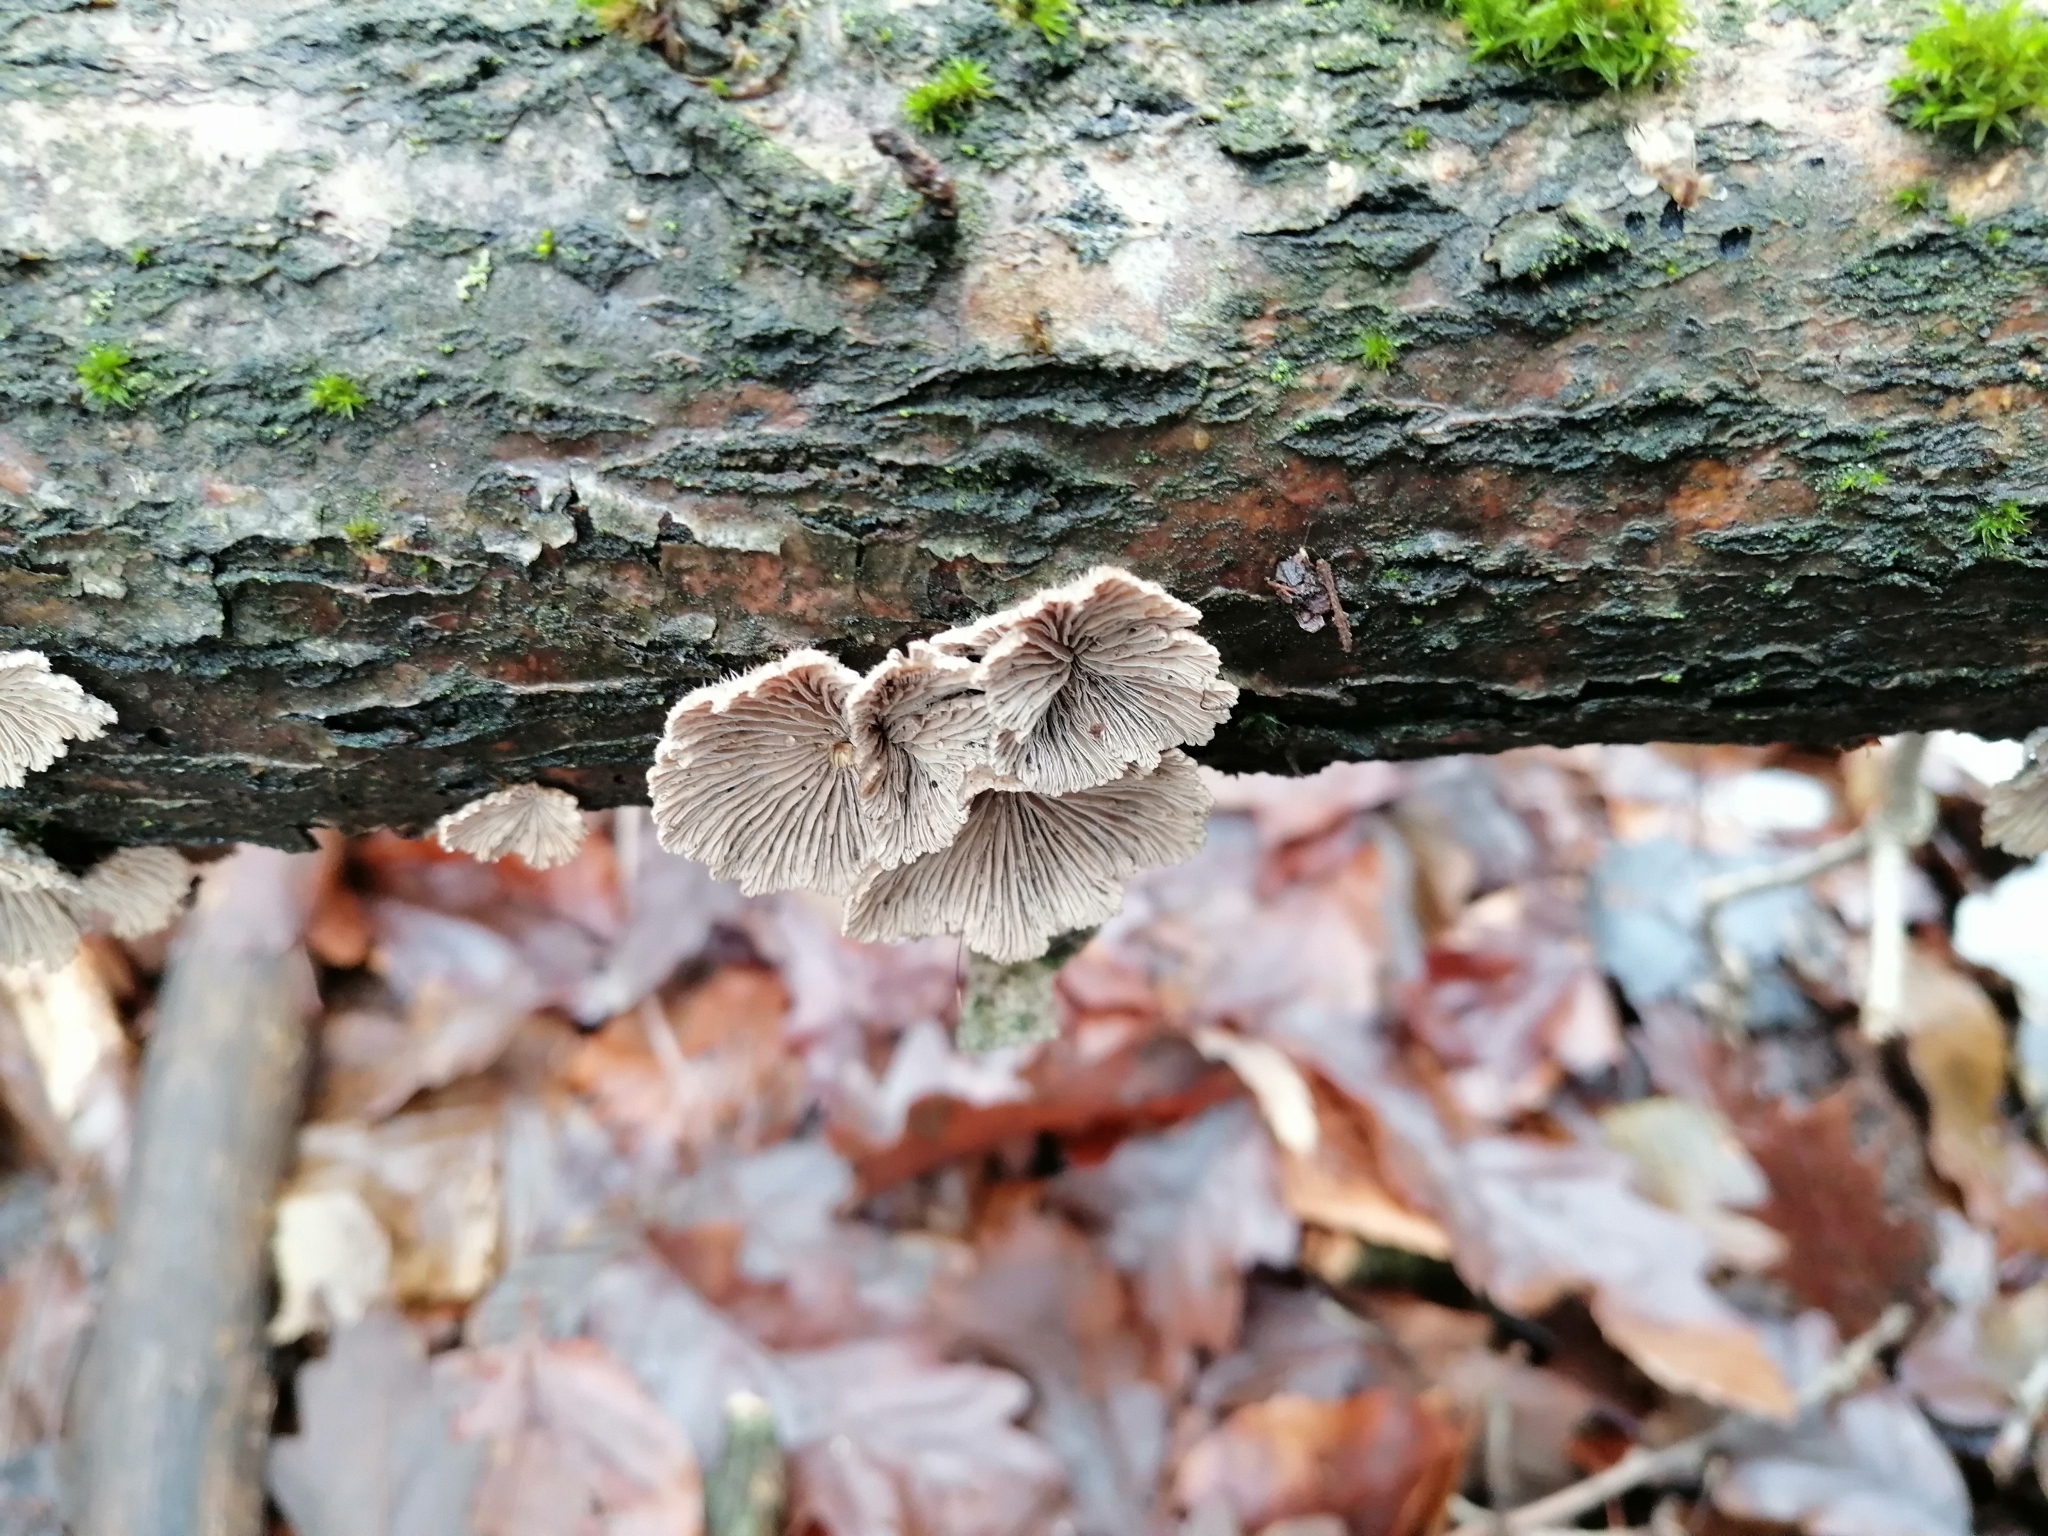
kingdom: Fungi
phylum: Basidiomycota
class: Agaricomycetes
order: Agaricales
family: Schizophyllaceae
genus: Schizophyllum
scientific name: Schizophyllum commune
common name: Common porecrust
